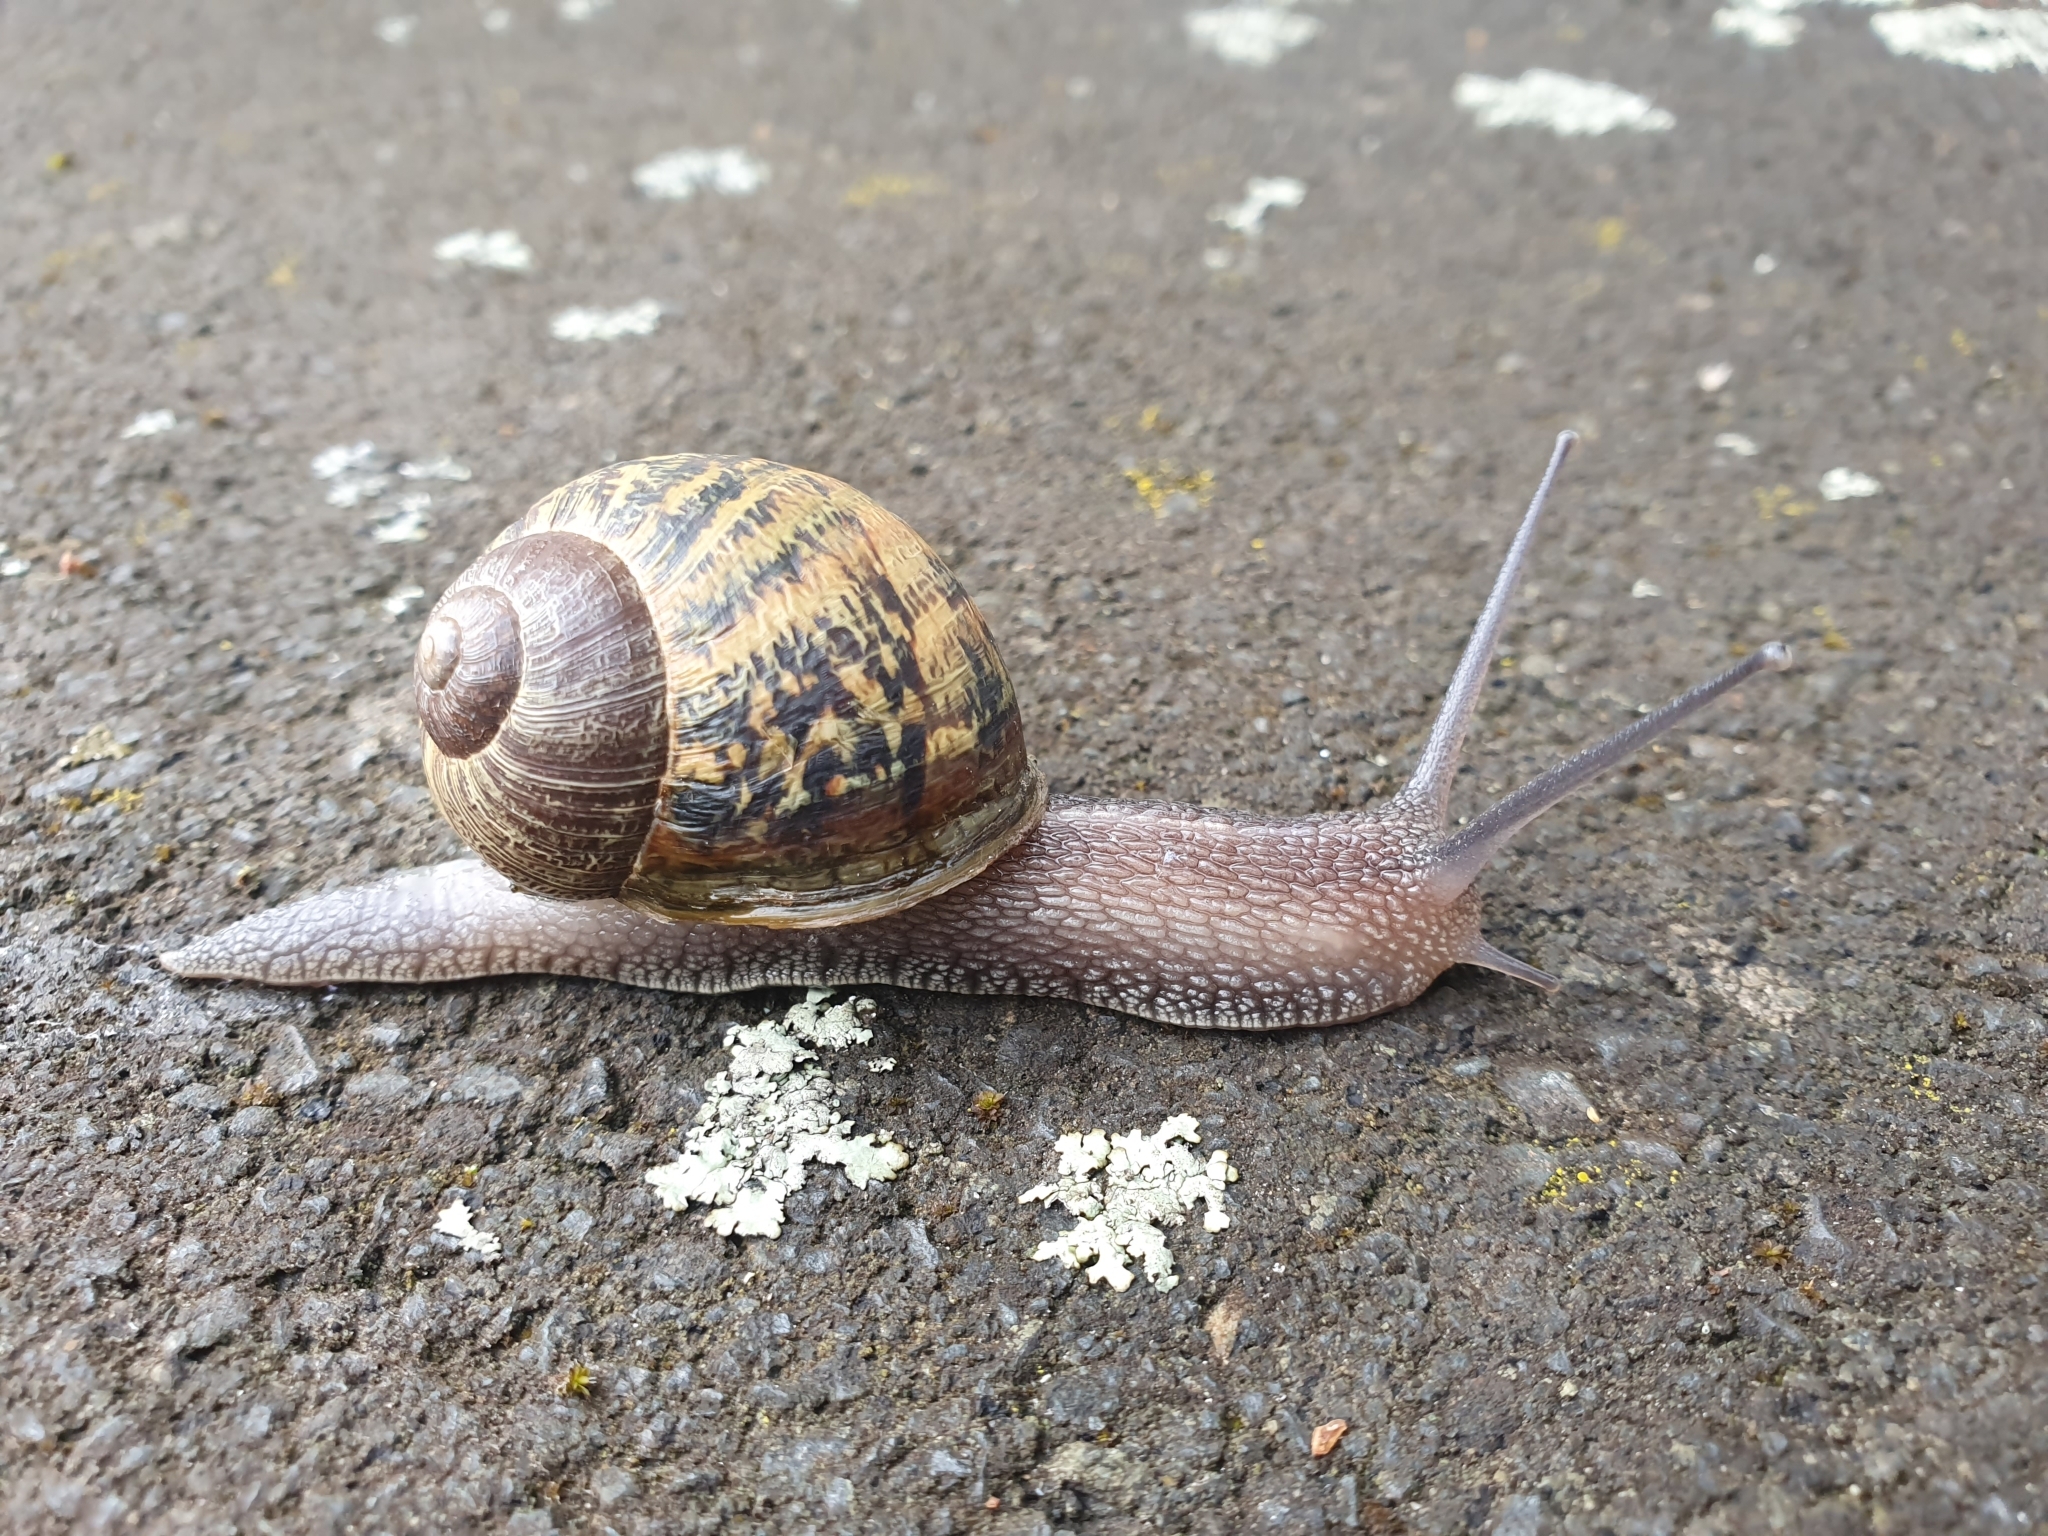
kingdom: Animalia
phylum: Mollusca
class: Gastropoda
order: Stylommatophora
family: Helicidae
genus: Cornu
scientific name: Cornu aspersum
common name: Brown garden snail
